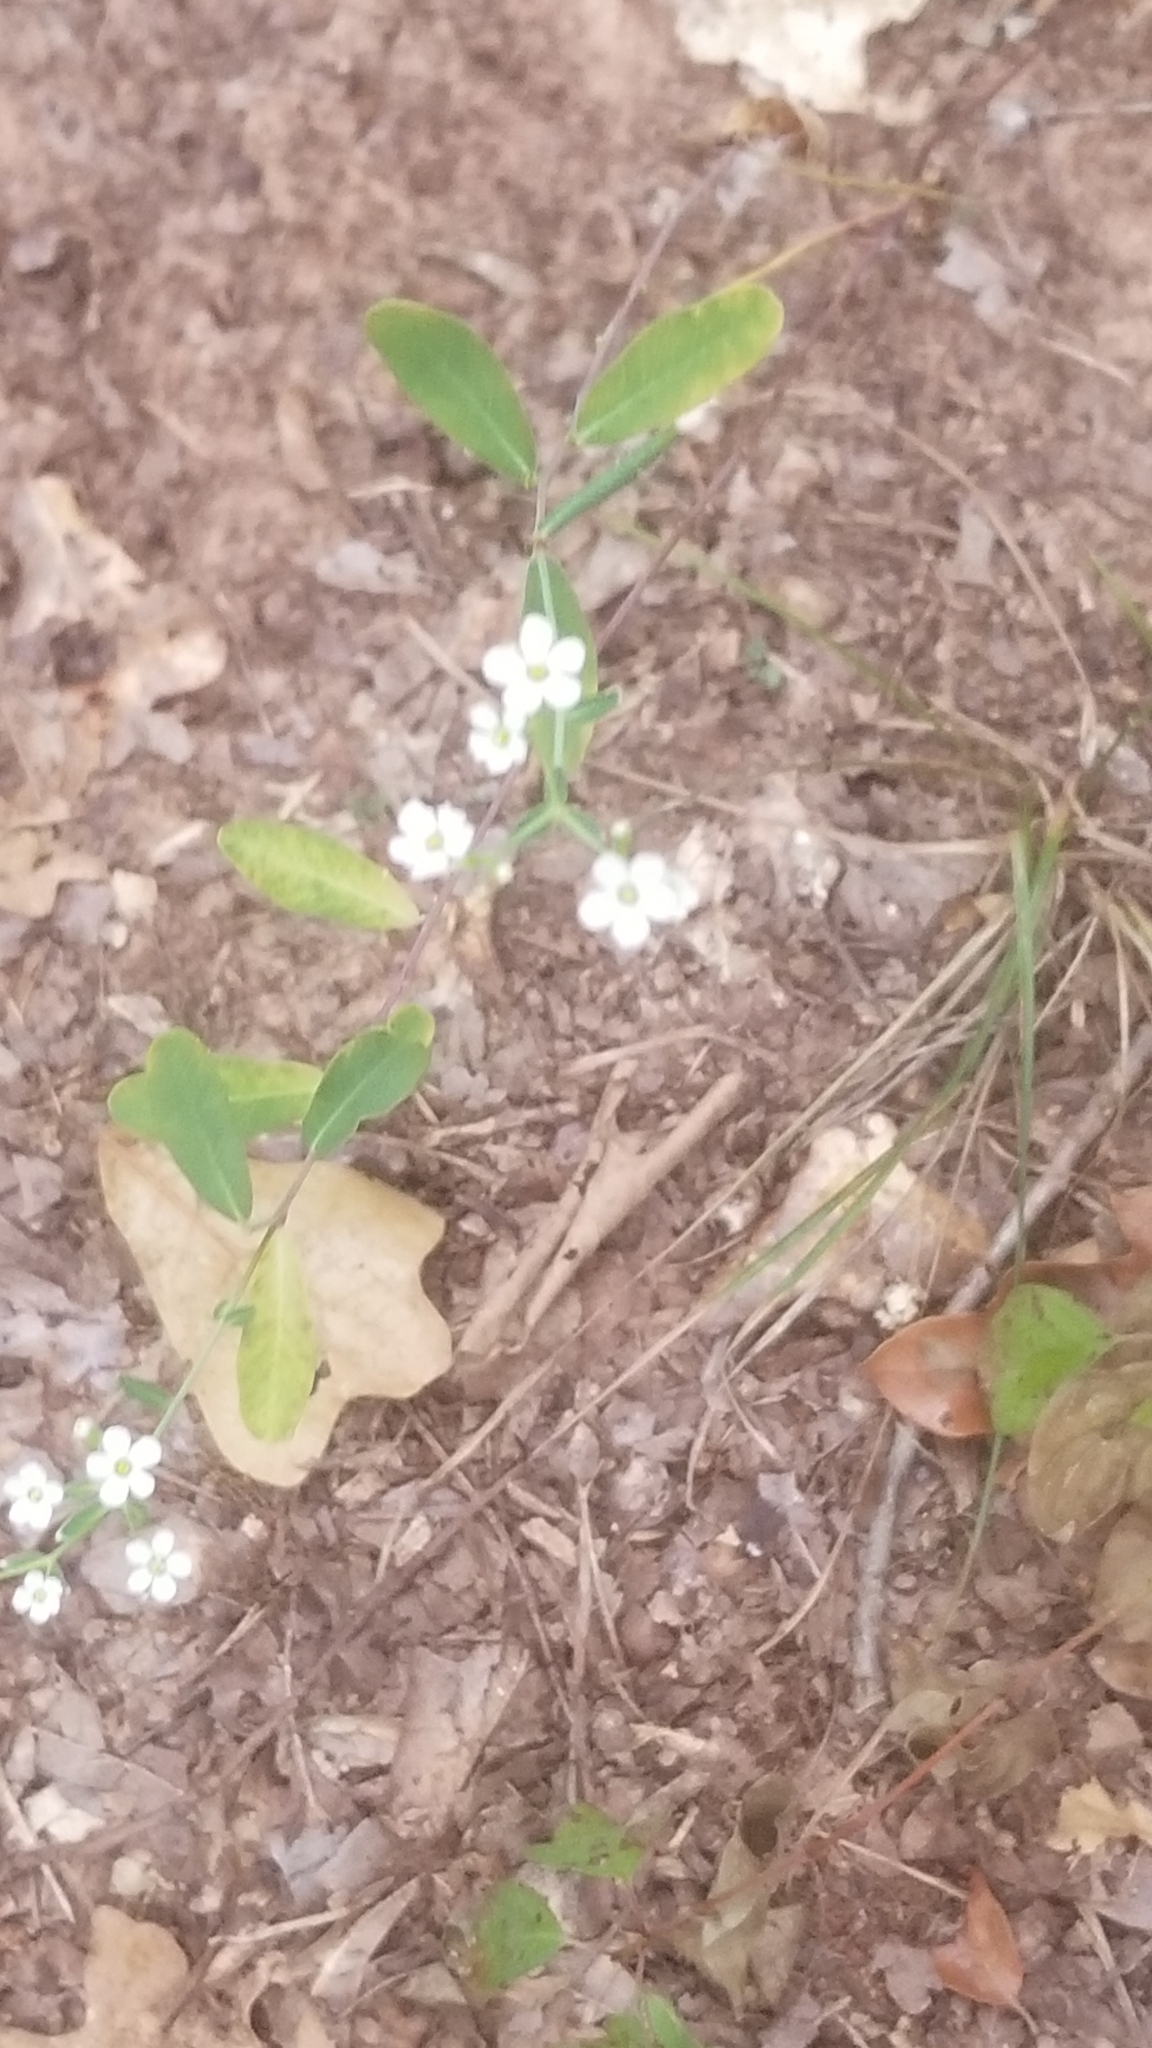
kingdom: Plantae
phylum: Tracheophyta
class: Magnoliopsida
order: Malpighiales
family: Euphorbiaceae
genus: Euphorbia
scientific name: Euphorbia corollata
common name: Flowering spurge
